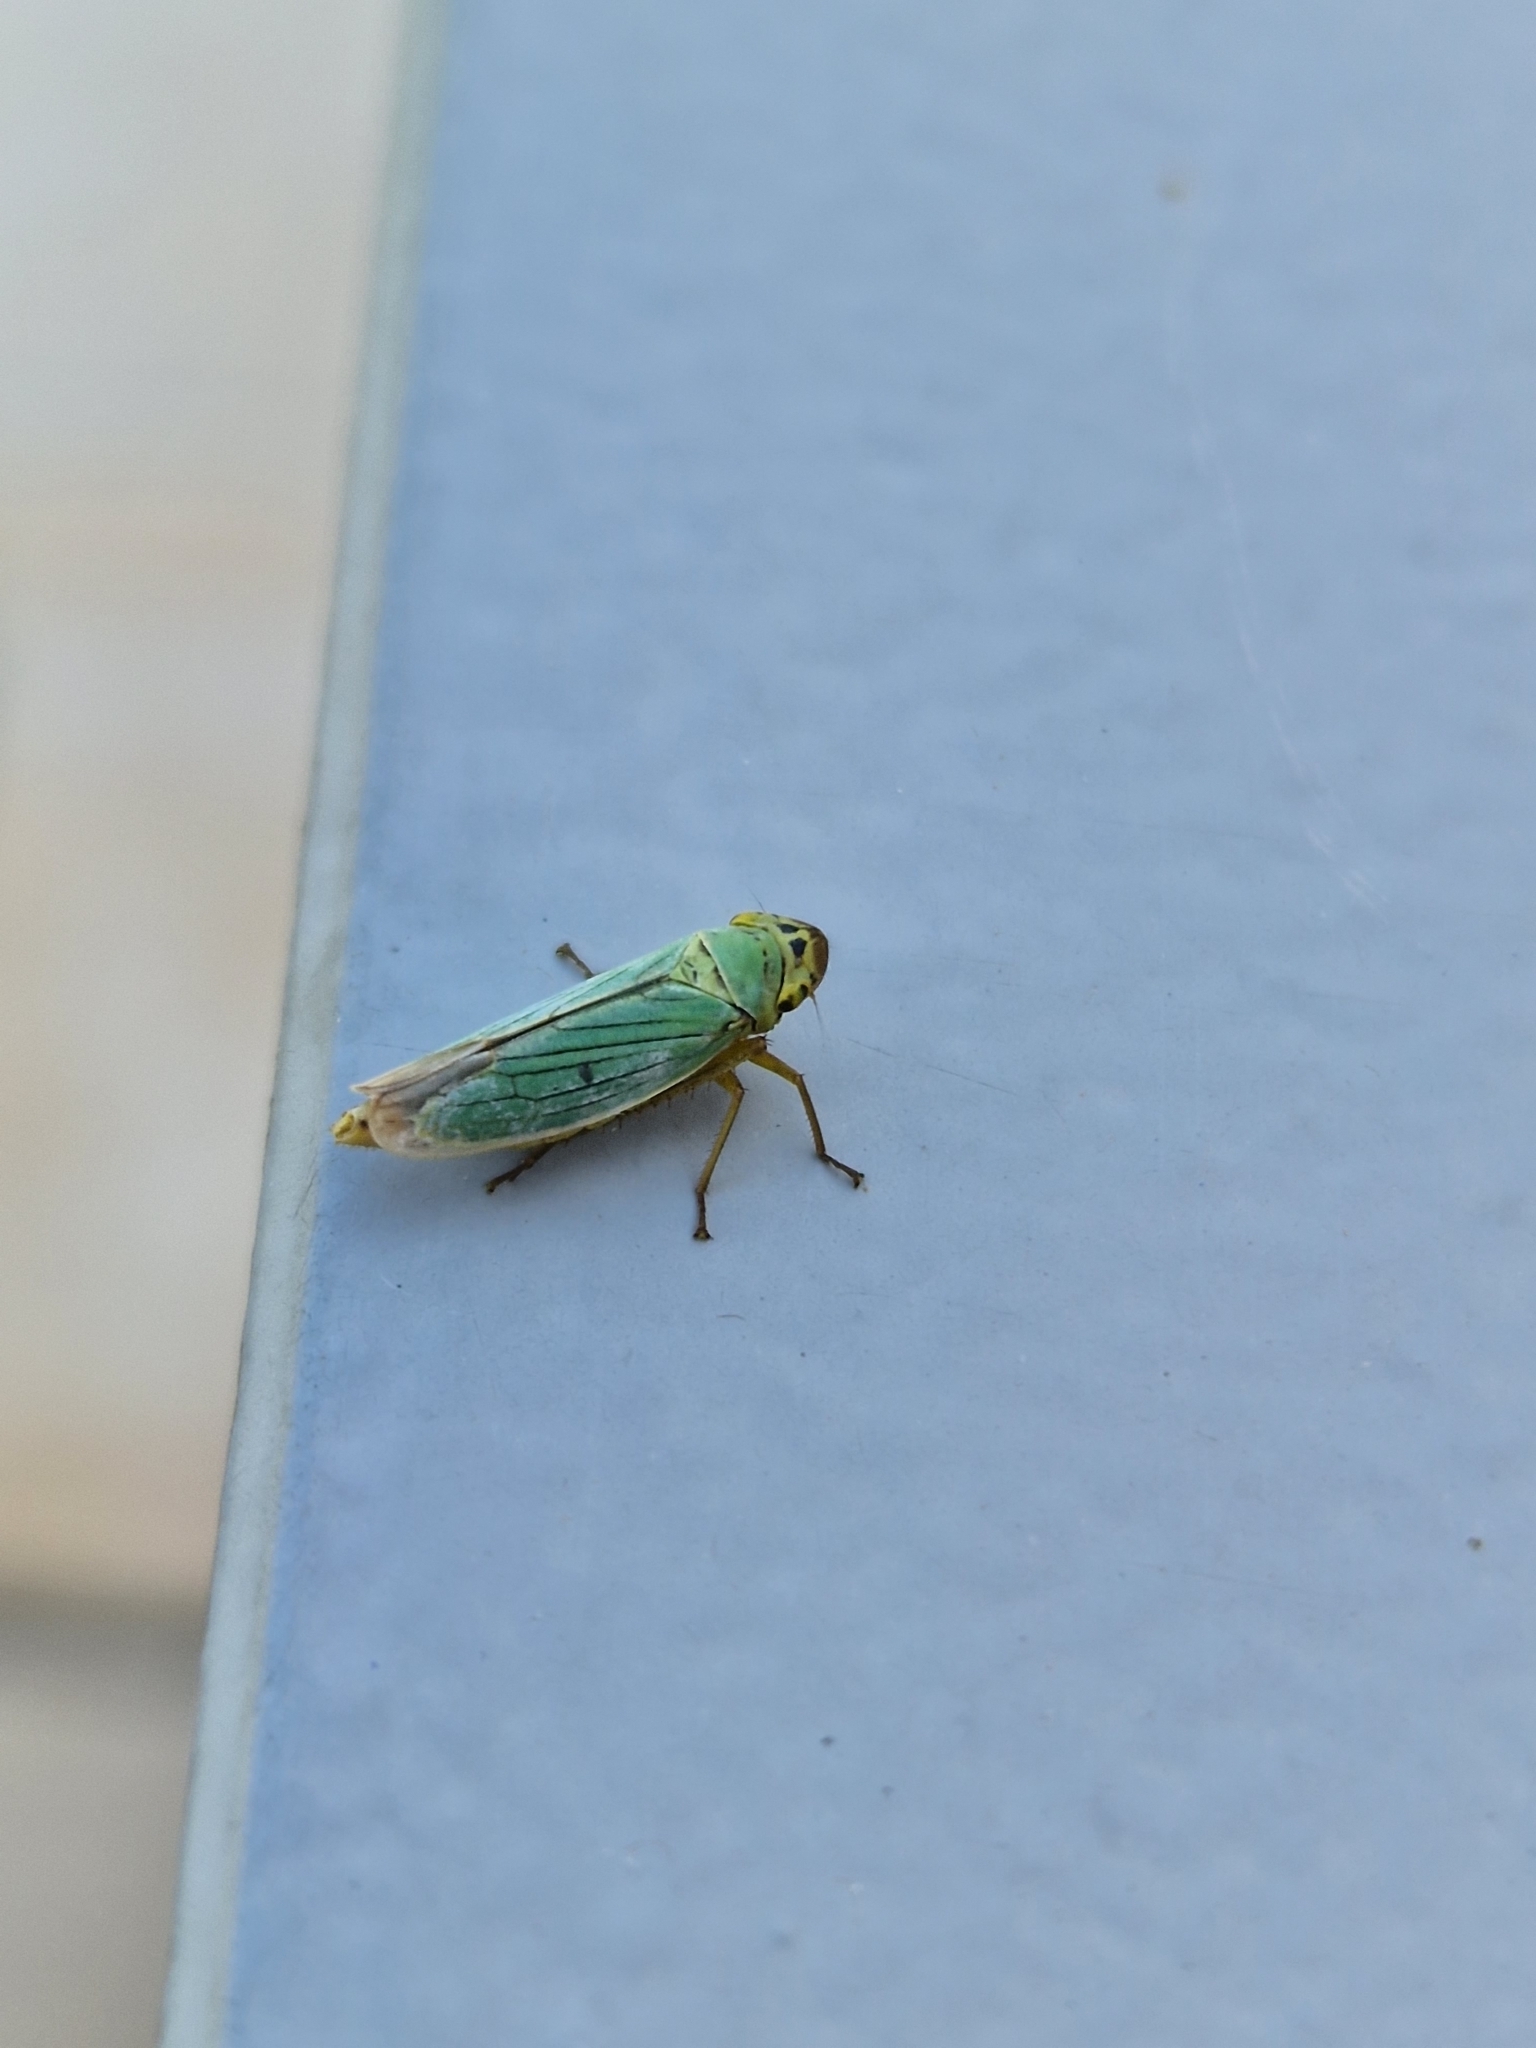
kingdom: Animalia
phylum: Arthropoda
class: Insecta
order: Hemiptera
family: Cicadellidae
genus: Cicadella
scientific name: Cicadella viridis
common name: Leafhopper
